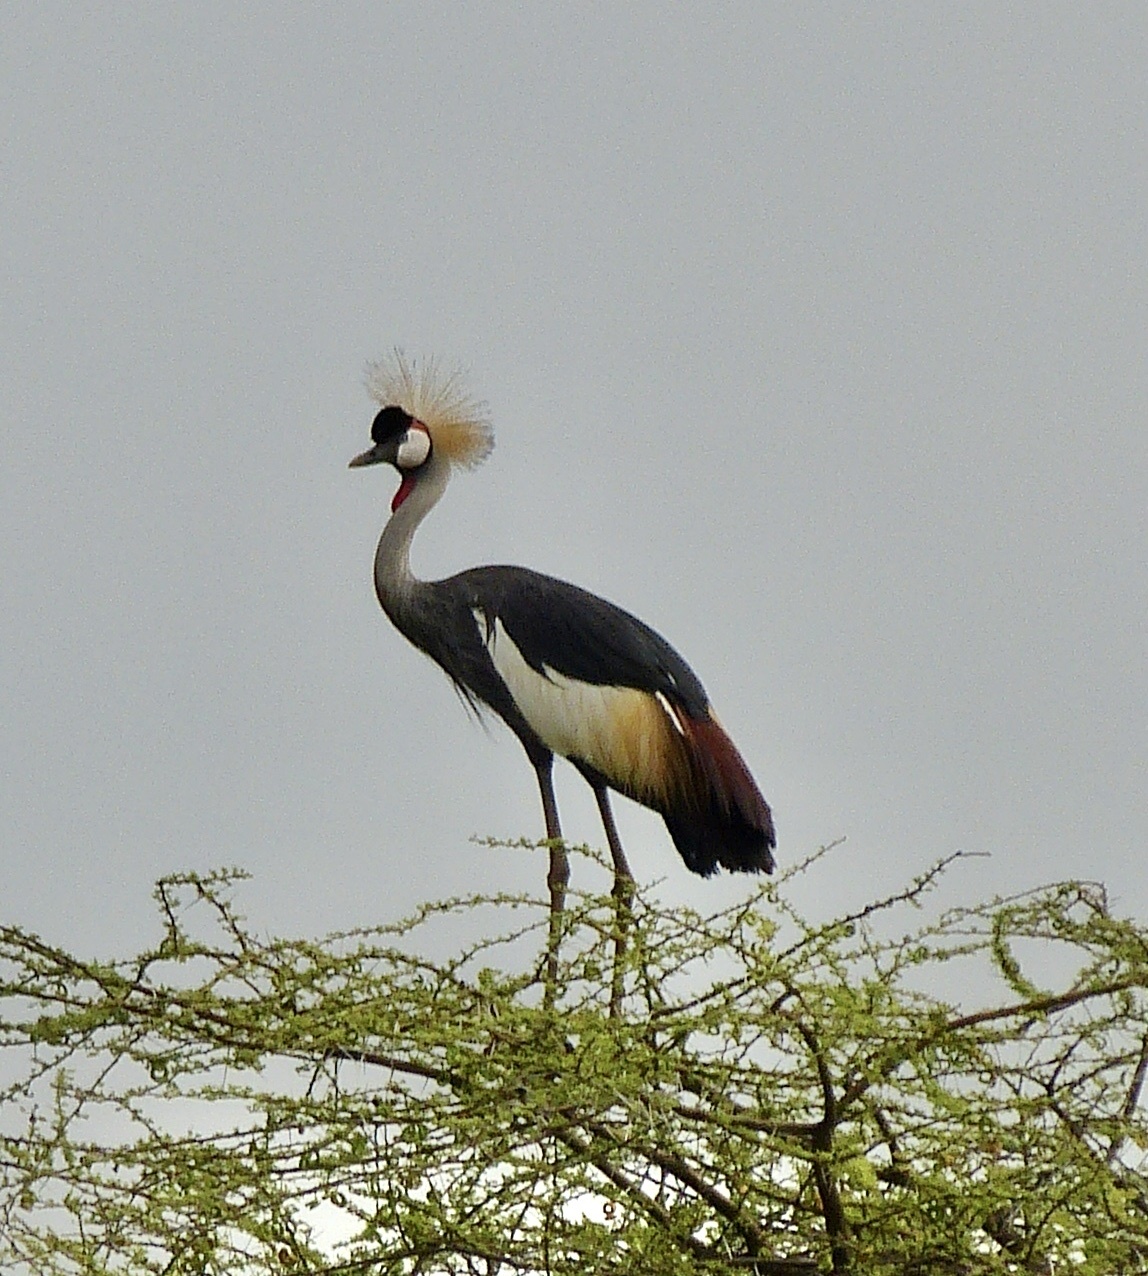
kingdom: Animalia
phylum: Chordata
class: Aves
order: Gruiformes
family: Gruidae
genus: Balearica
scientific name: Balearica regulorum
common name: Grey crowned crane
